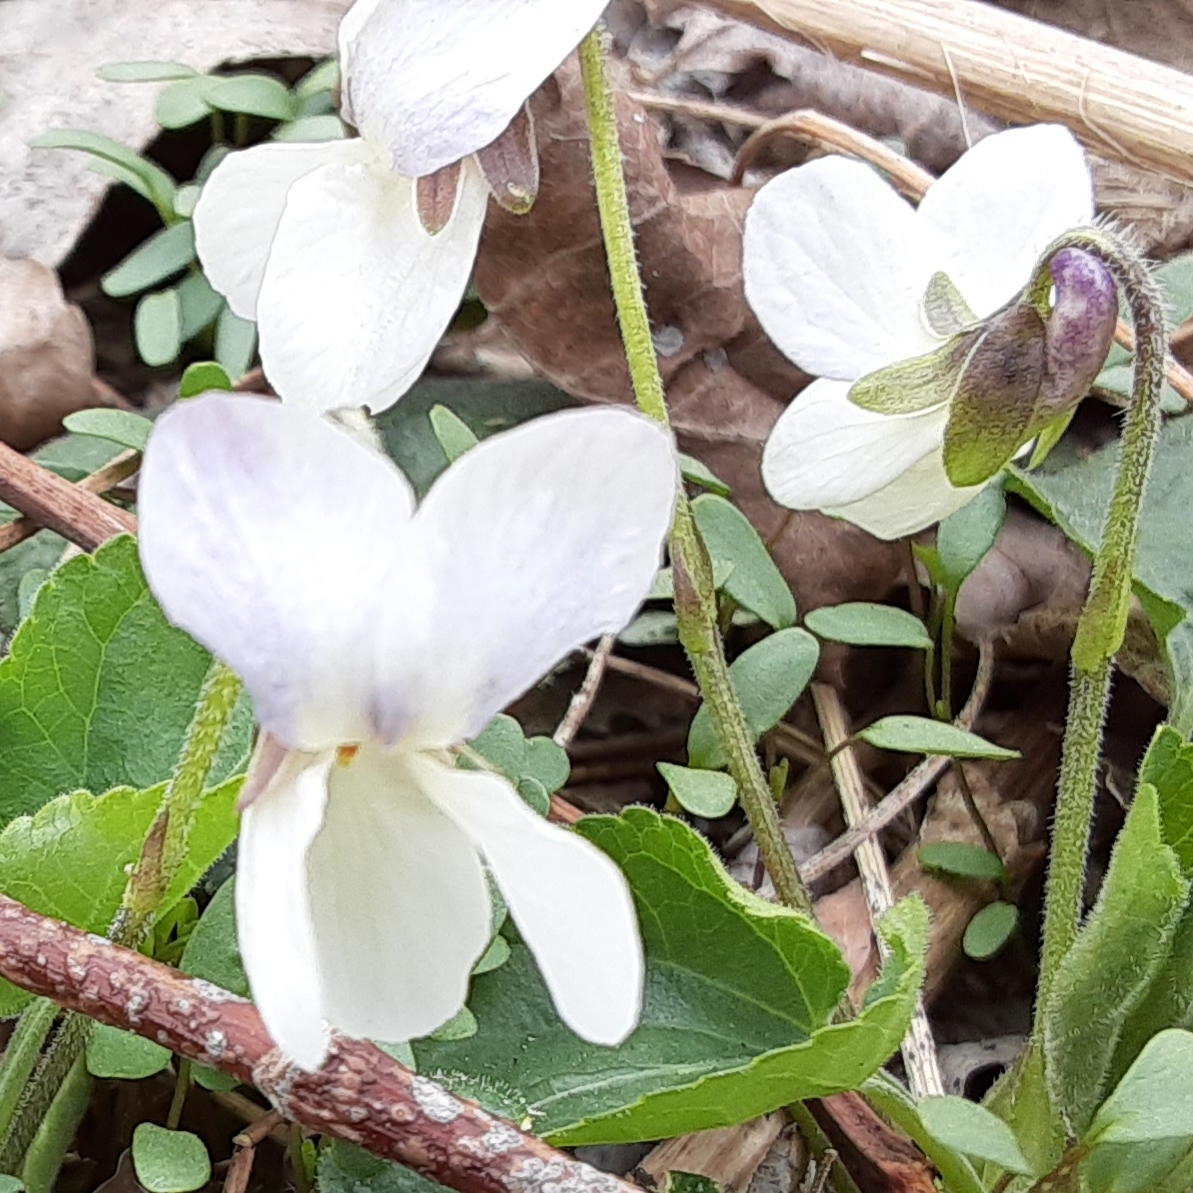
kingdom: Plantae
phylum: Tracheophyta
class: Magnoliopsida
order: Malpighiales
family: Violaceae
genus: Viola
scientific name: Viola odorata
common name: Sweet violet
